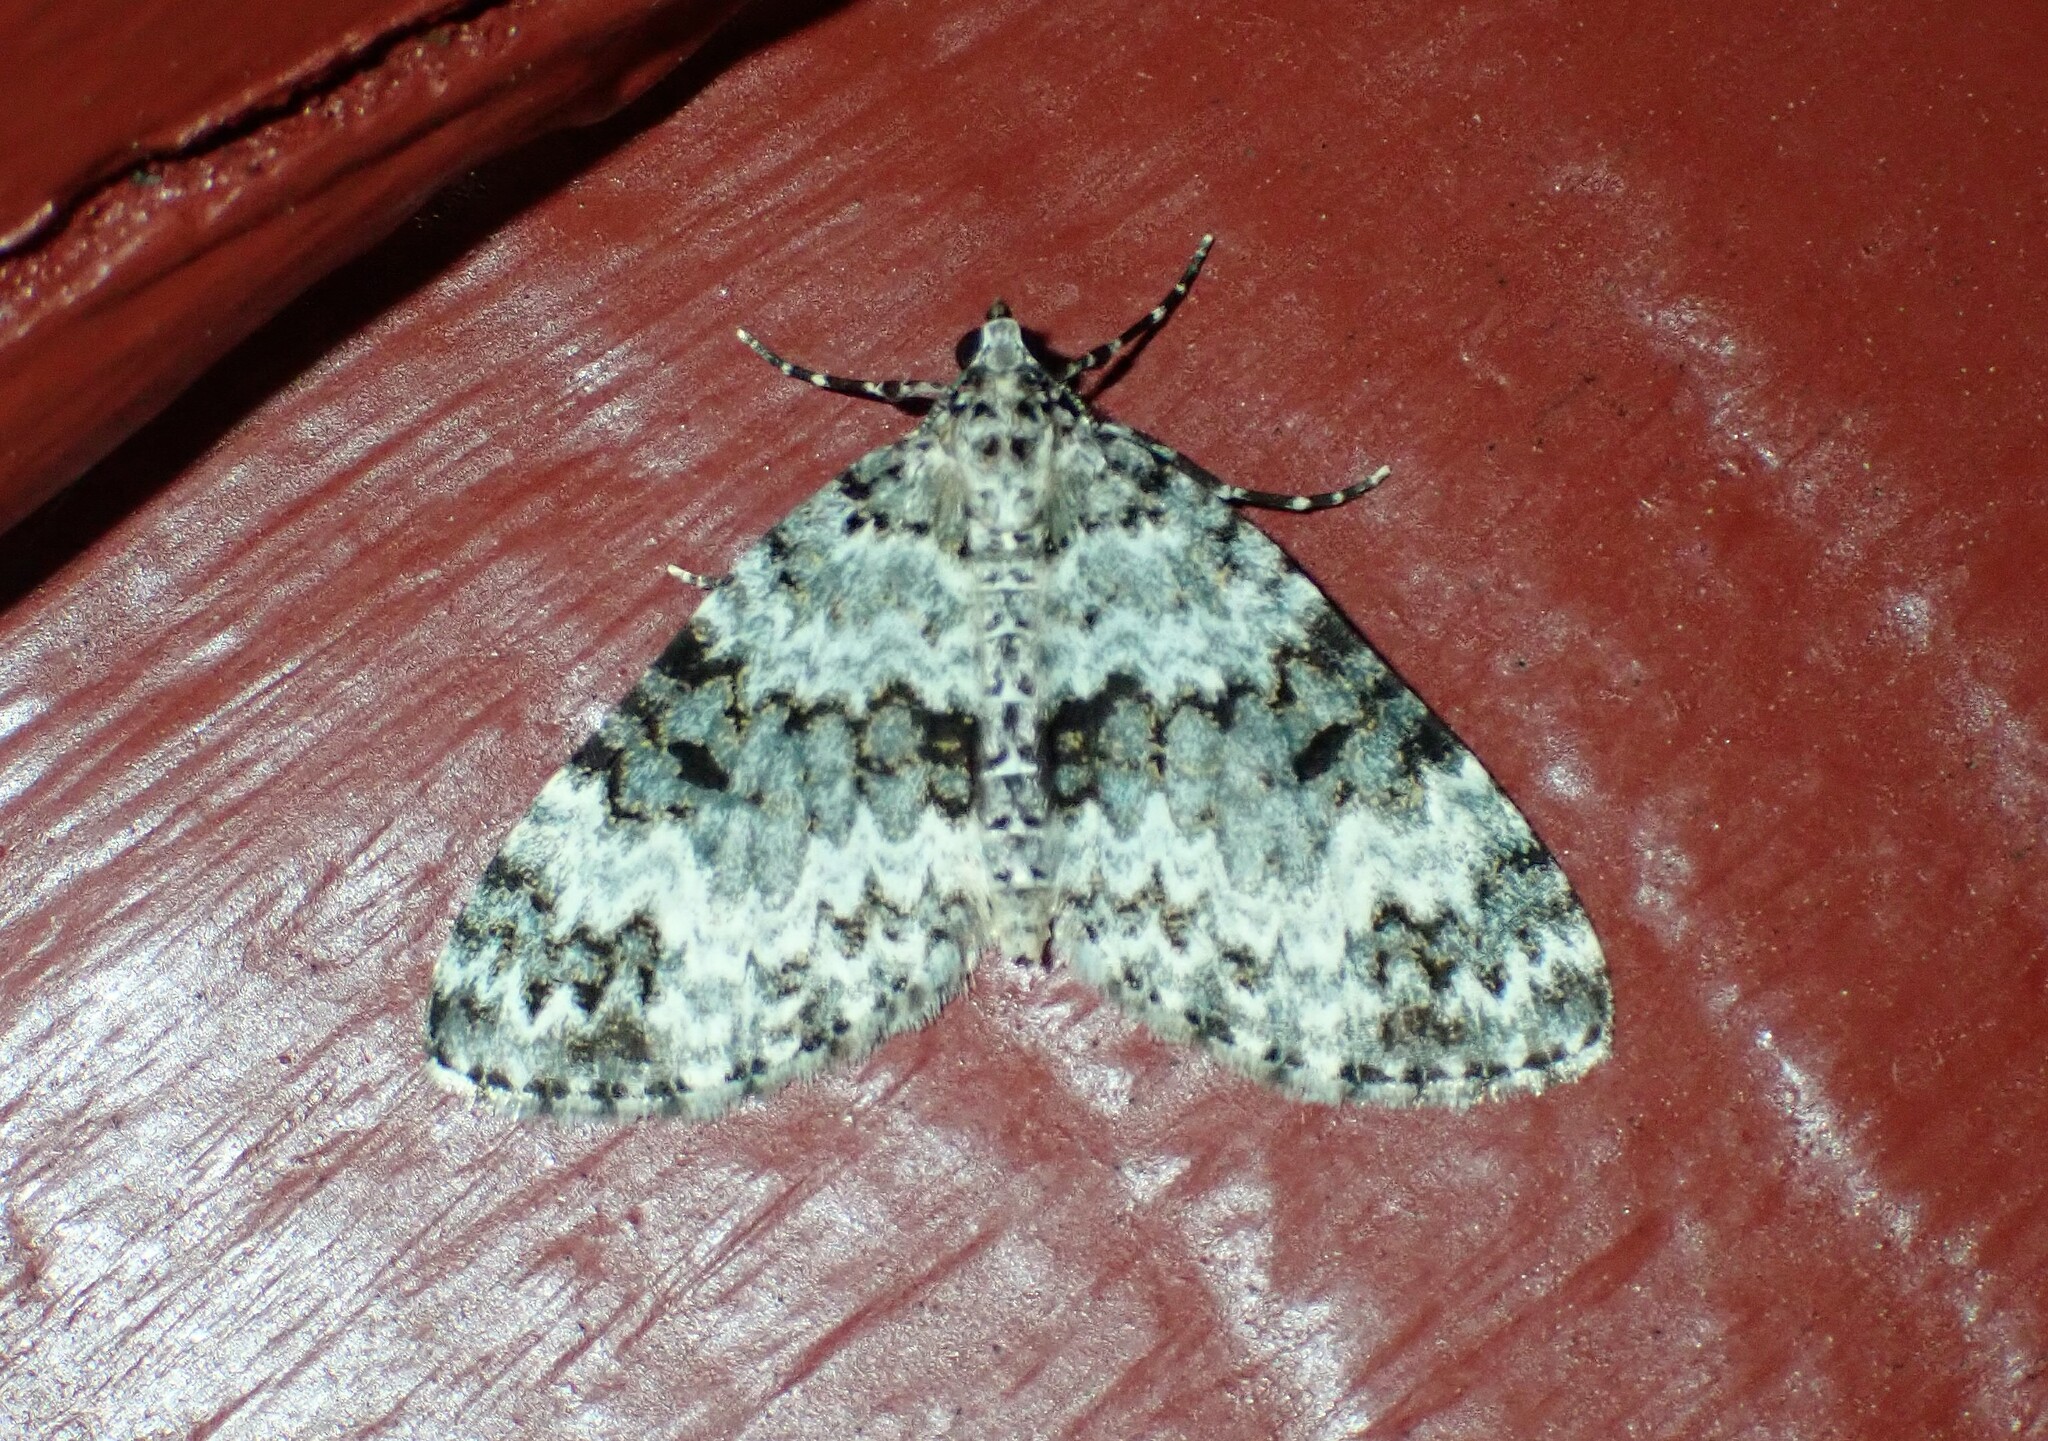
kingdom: Animalia
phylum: Arthropoda
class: Insecta
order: Lepidoptera
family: Geometridae
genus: Spargania
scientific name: Spargania magnoliata
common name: Double-banded carpet
